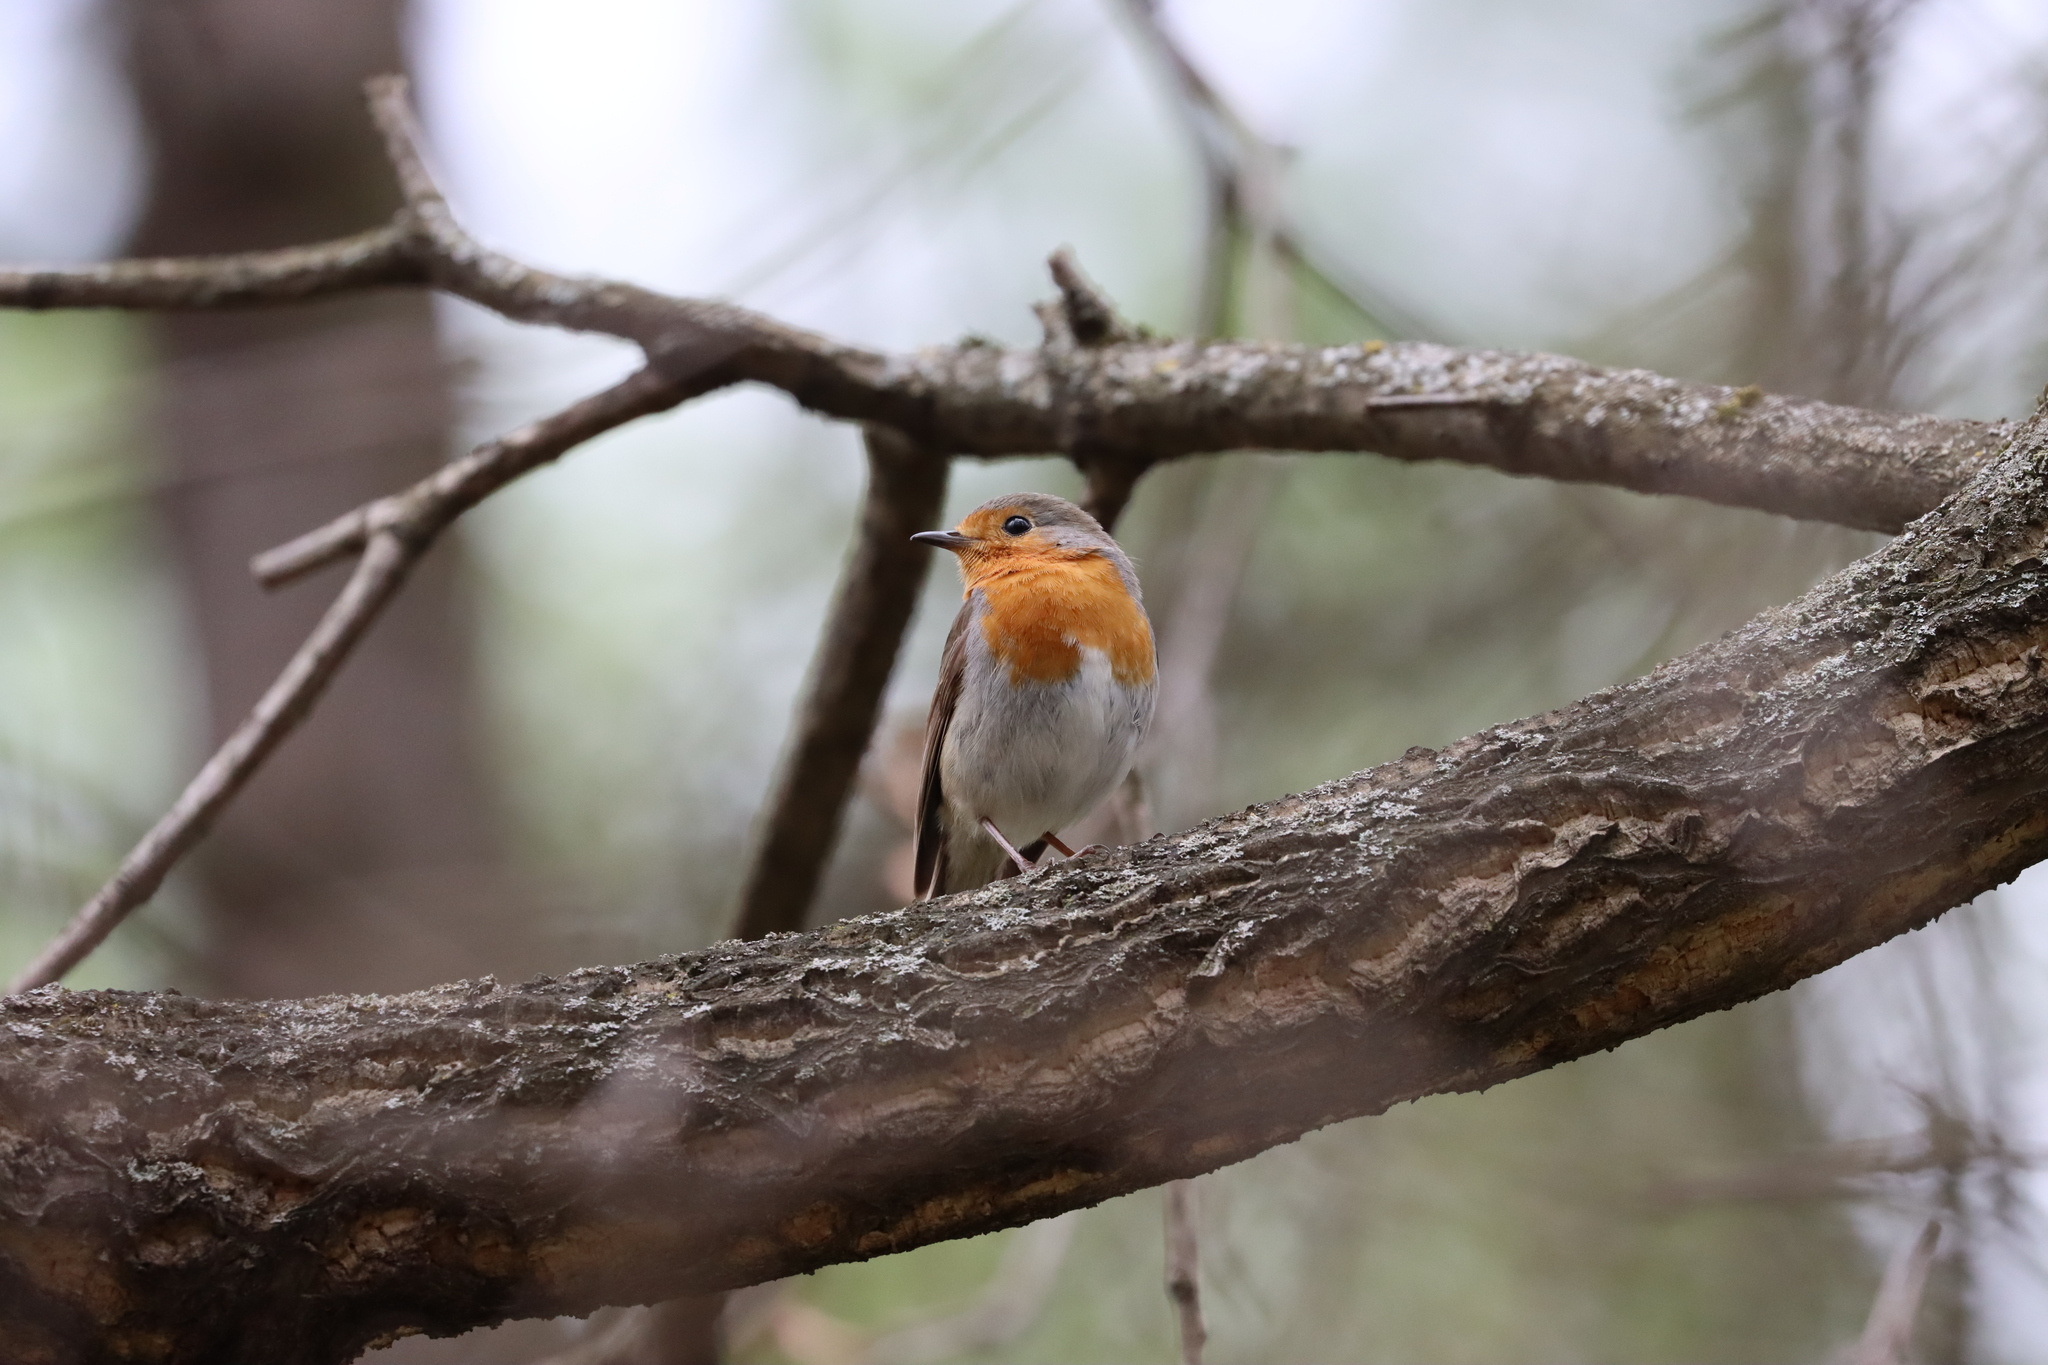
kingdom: Animalia
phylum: Chordata
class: Aves
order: Passeriformes
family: Muscicapidae
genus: Erithacus
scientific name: Erithacus rubecula
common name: European robin
